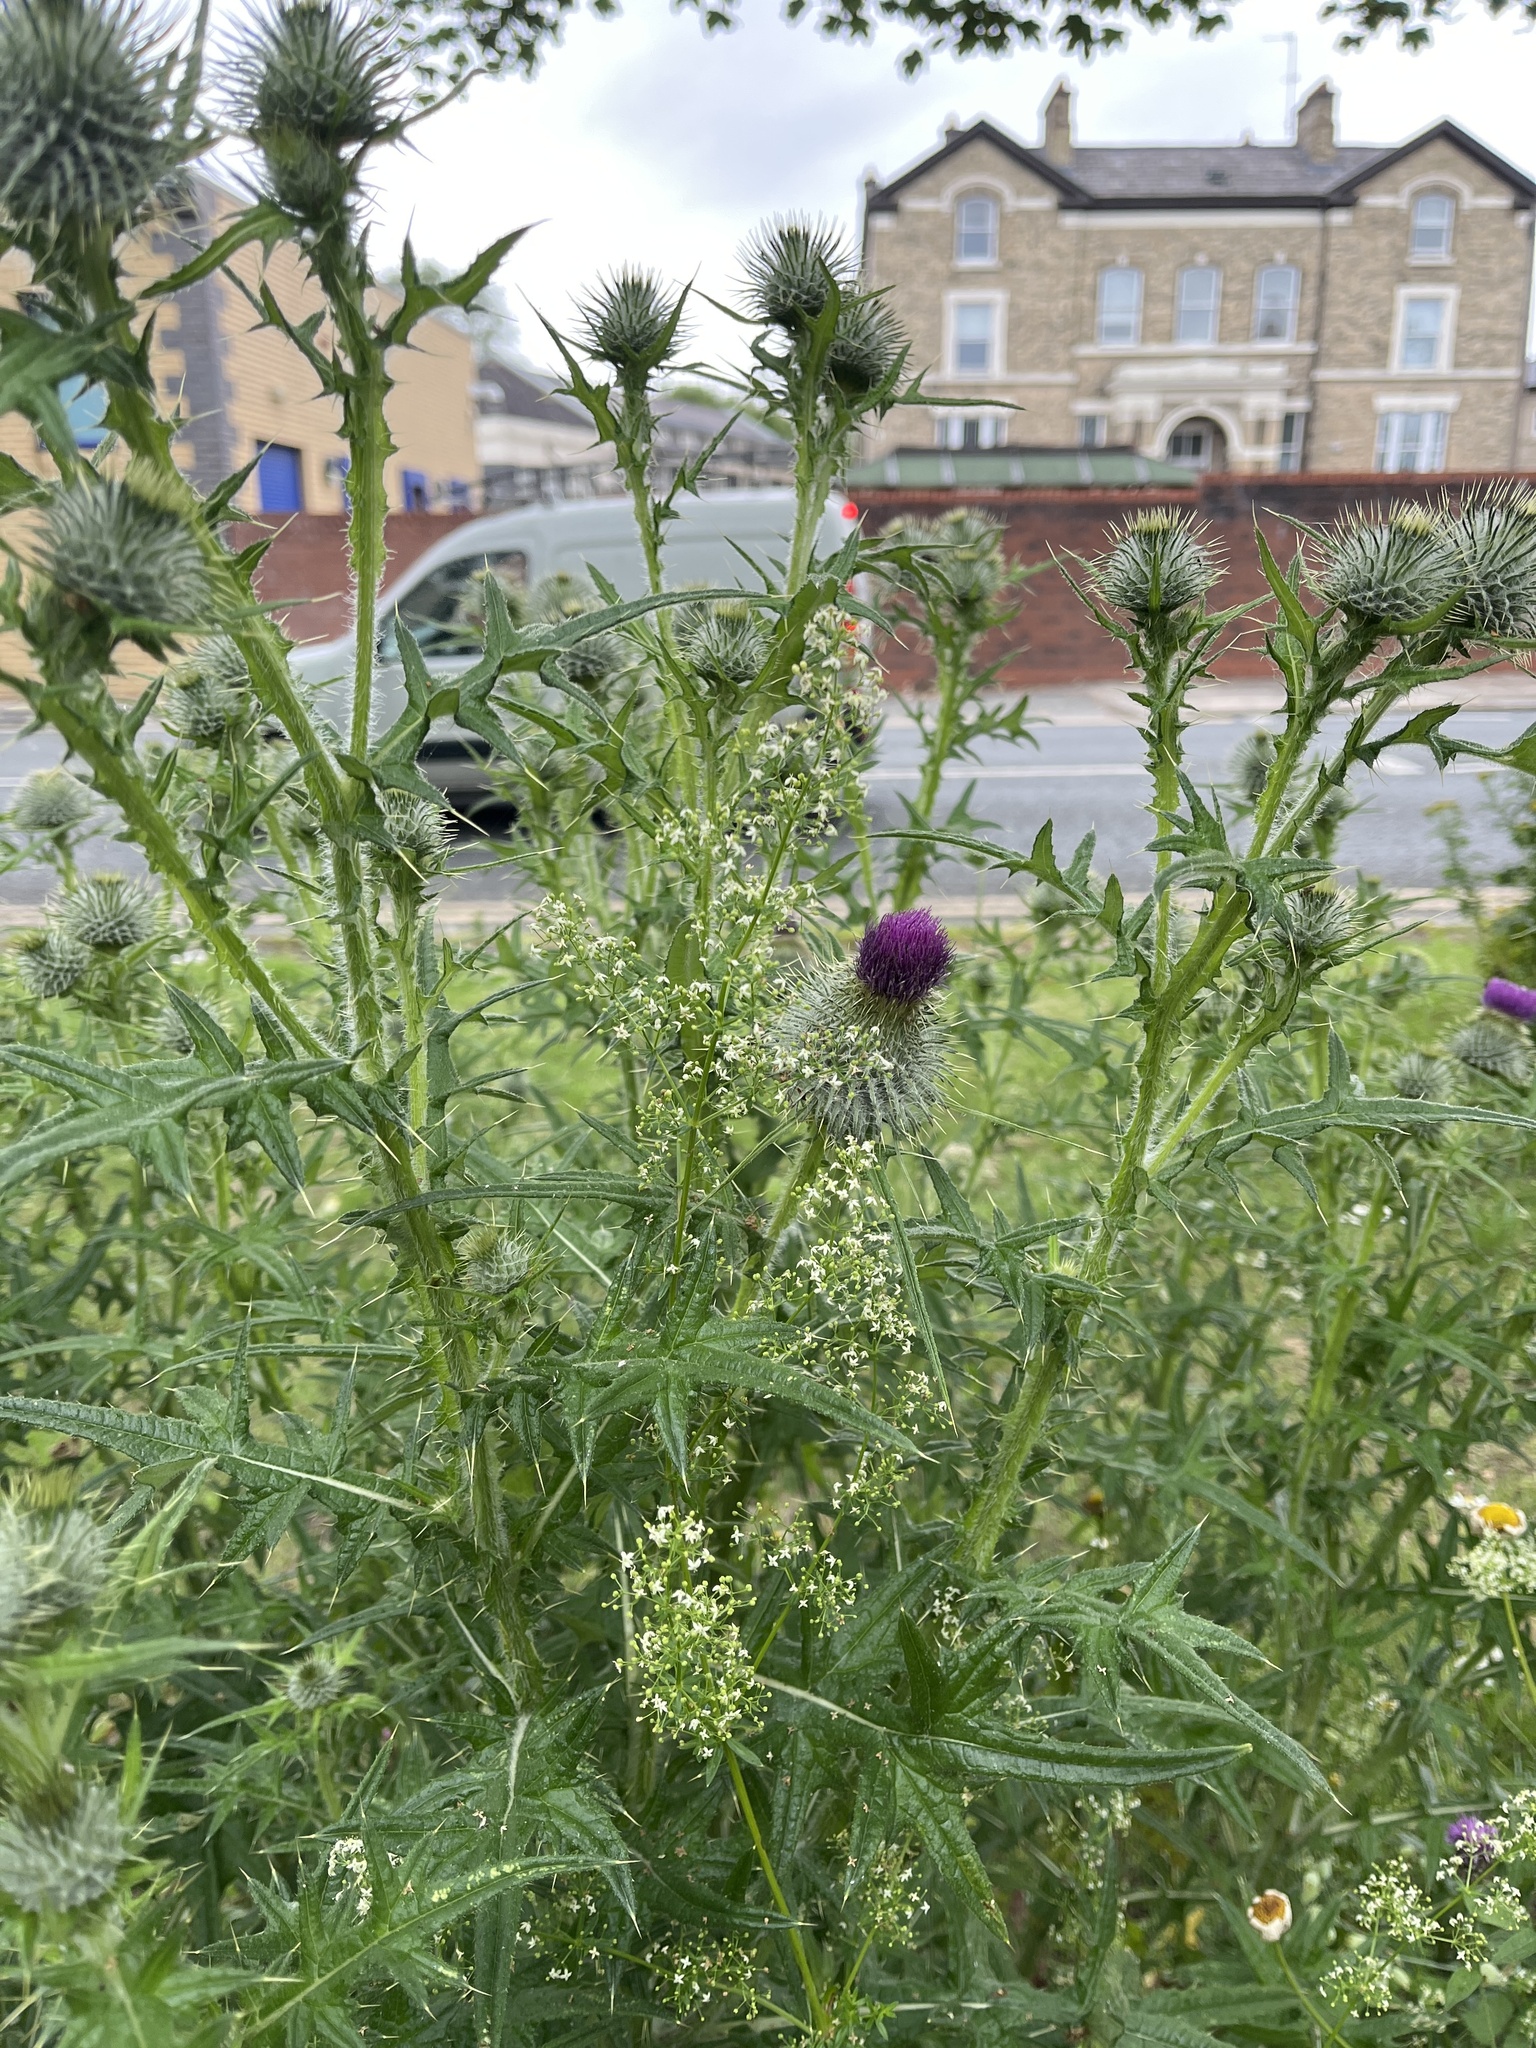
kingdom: Plantae
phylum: Tracheophyta
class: Magnoliopsida
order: Asterales
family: Asteraceae
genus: Cirsium
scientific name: Cirsium vulgare
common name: Bull thistle
